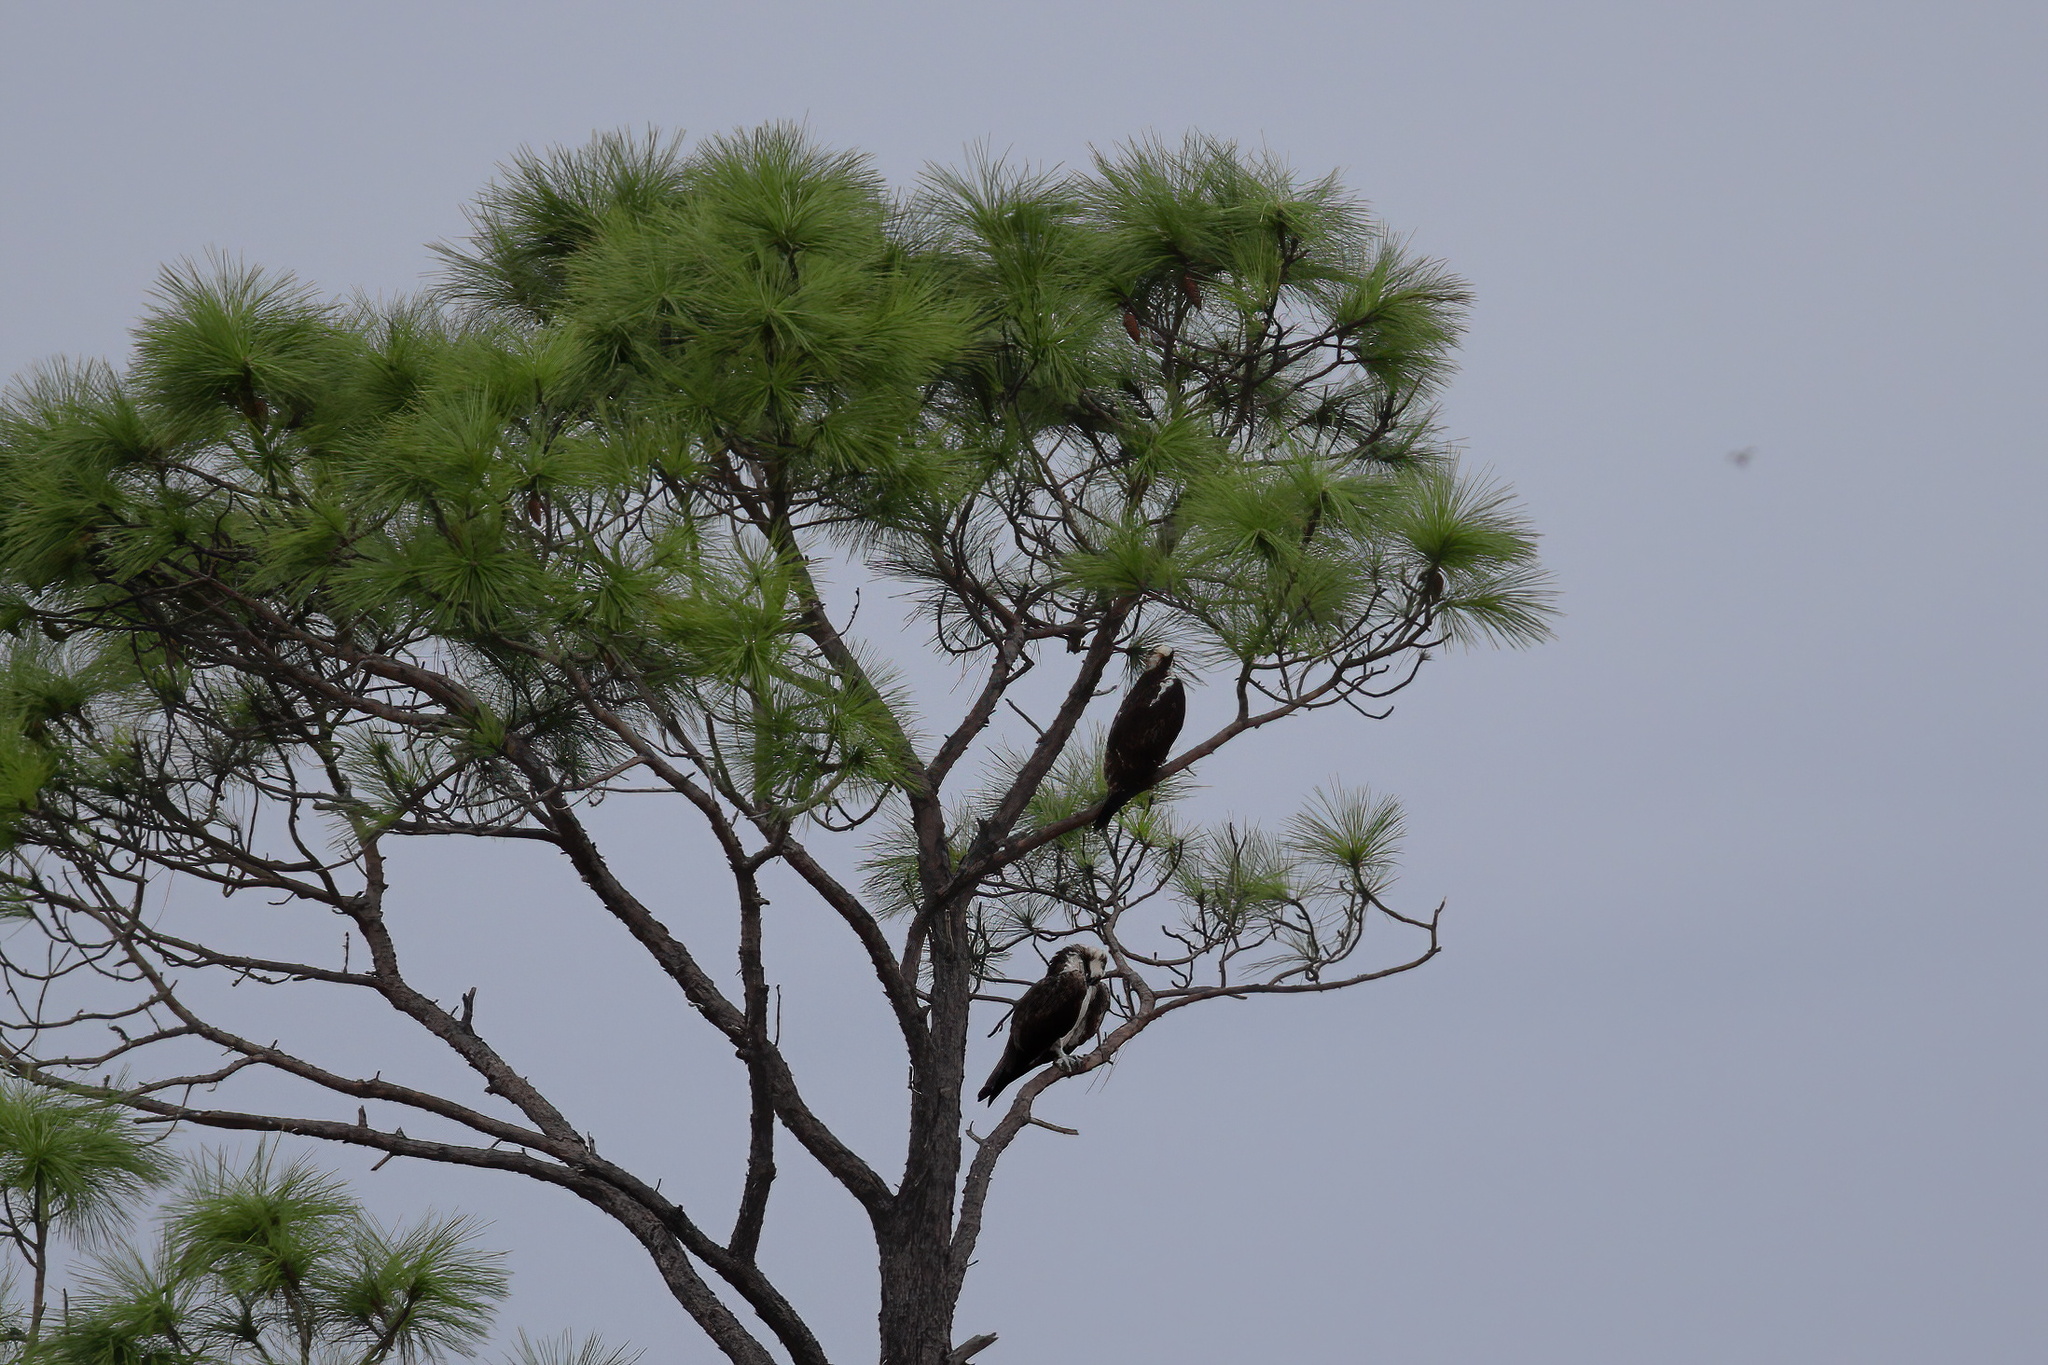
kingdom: Animalia
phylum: Chordata
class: Aves
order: Accipitriformes
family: Pandionidae
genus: Pandion
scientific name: Pandion haliaetus
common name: Osprey
